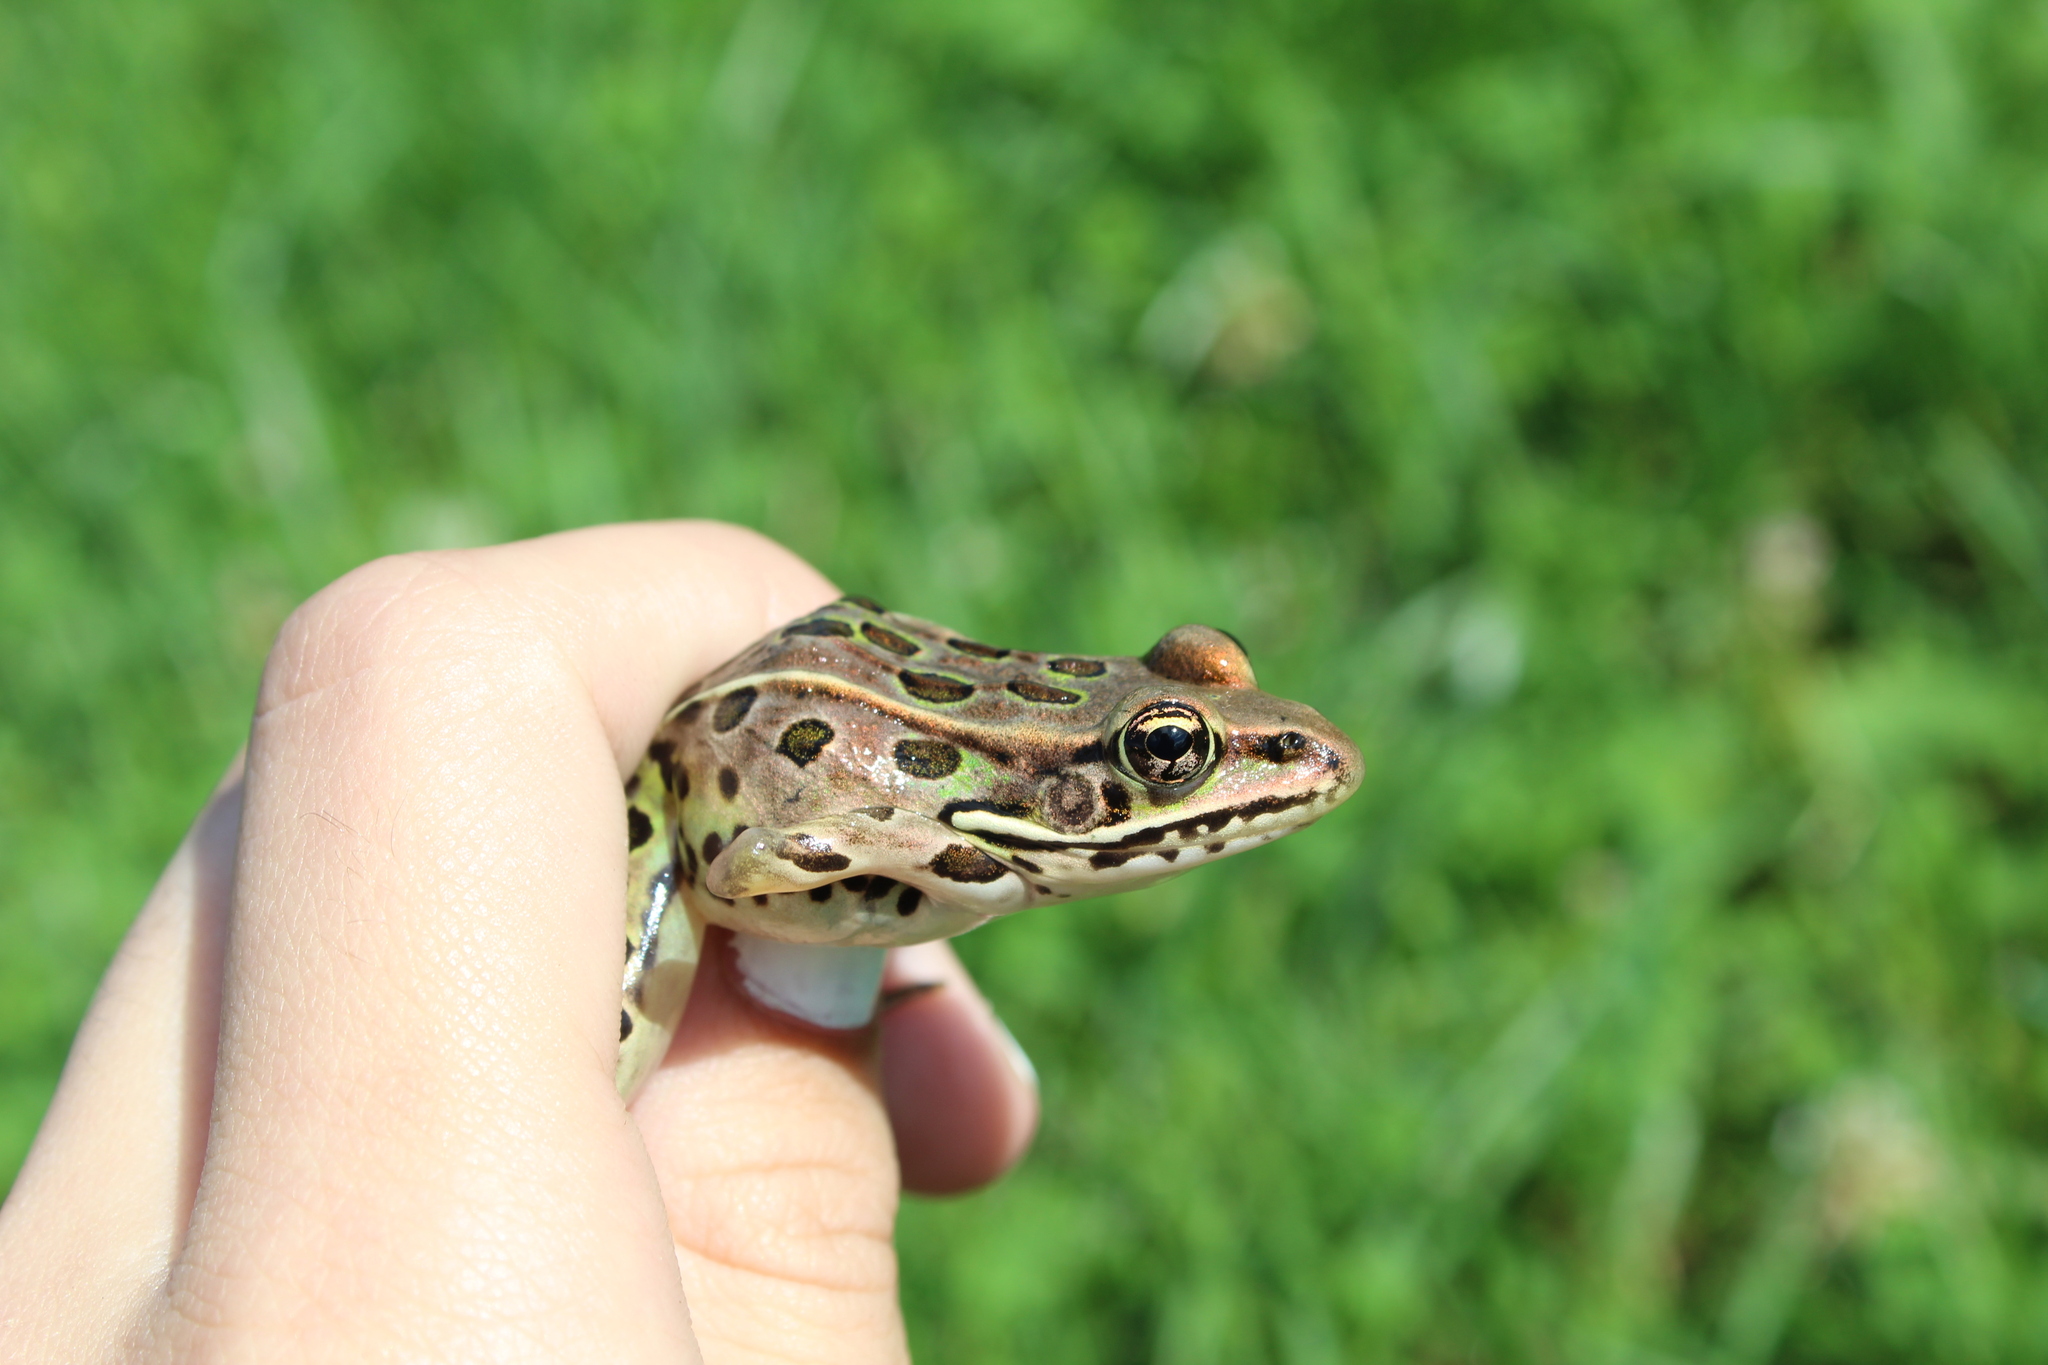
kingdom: Animalia
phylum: Chordata
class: Amphibia
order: Anura
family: Ranidae
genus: Lithobates
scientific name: Lithobates pipiens
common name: Northern leopard frog
